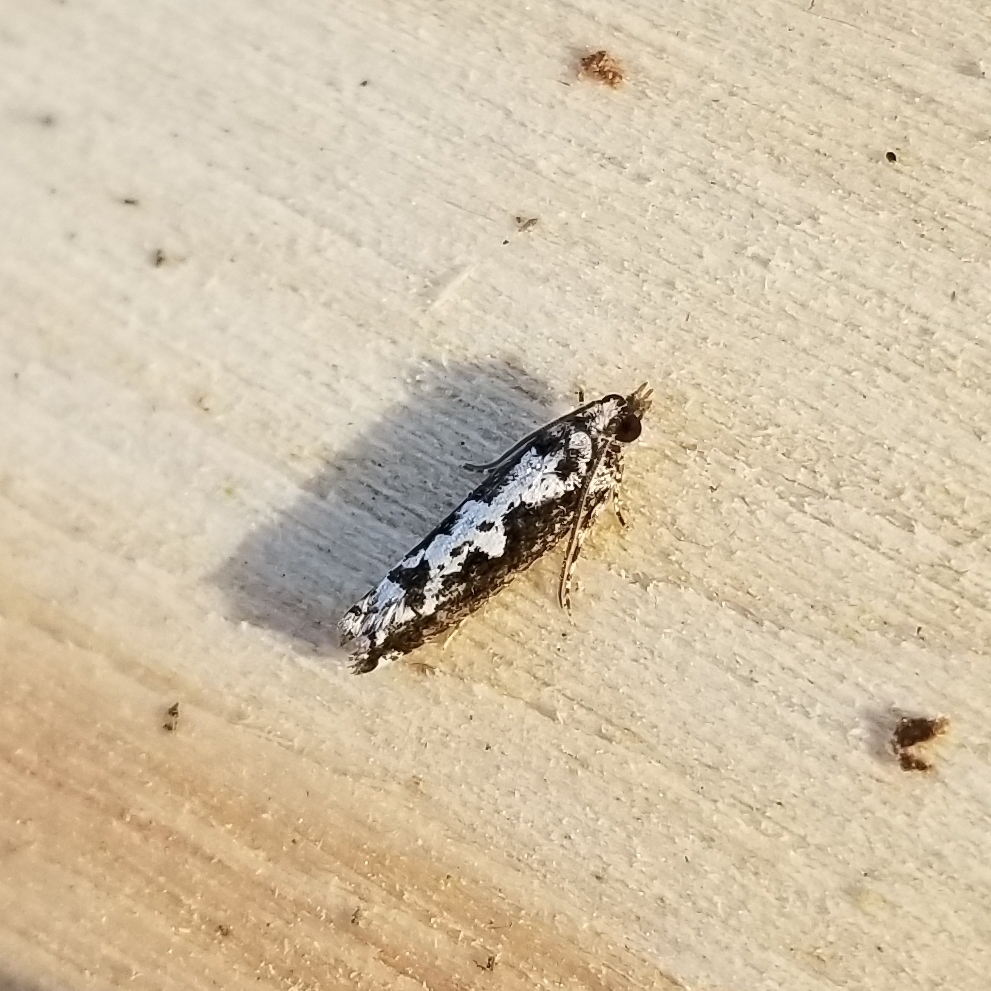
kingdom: Animalia
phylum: Arthropoda
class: Insecta
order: Lepidoptera
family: Tortricidae
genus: Chimoptesis
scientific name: Chimoptesis pennsylvaniana
